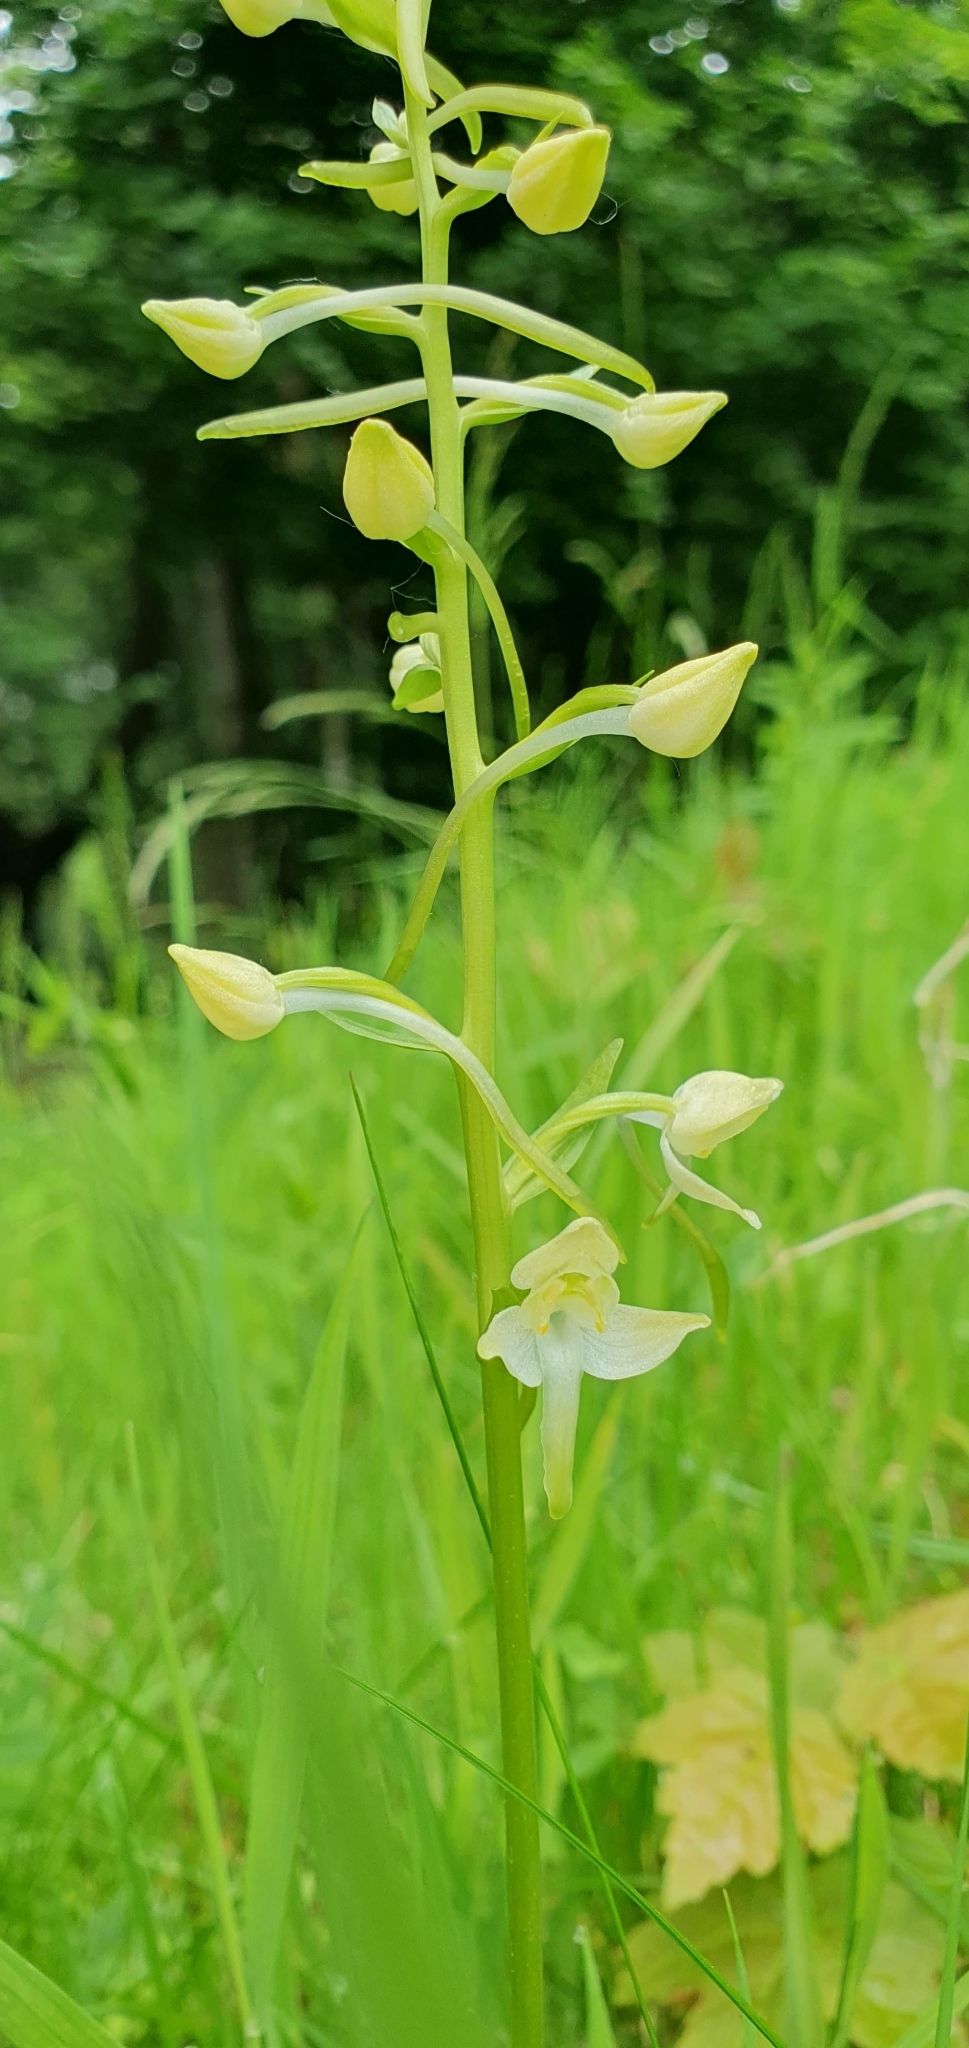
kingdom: Plantae
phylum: Tracheophyta
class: Liliopsida
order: Asparagales
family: Orchidaceae
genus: Platanthera
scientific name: Platanthera chlorantha
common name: Greater butterfly-orchid
